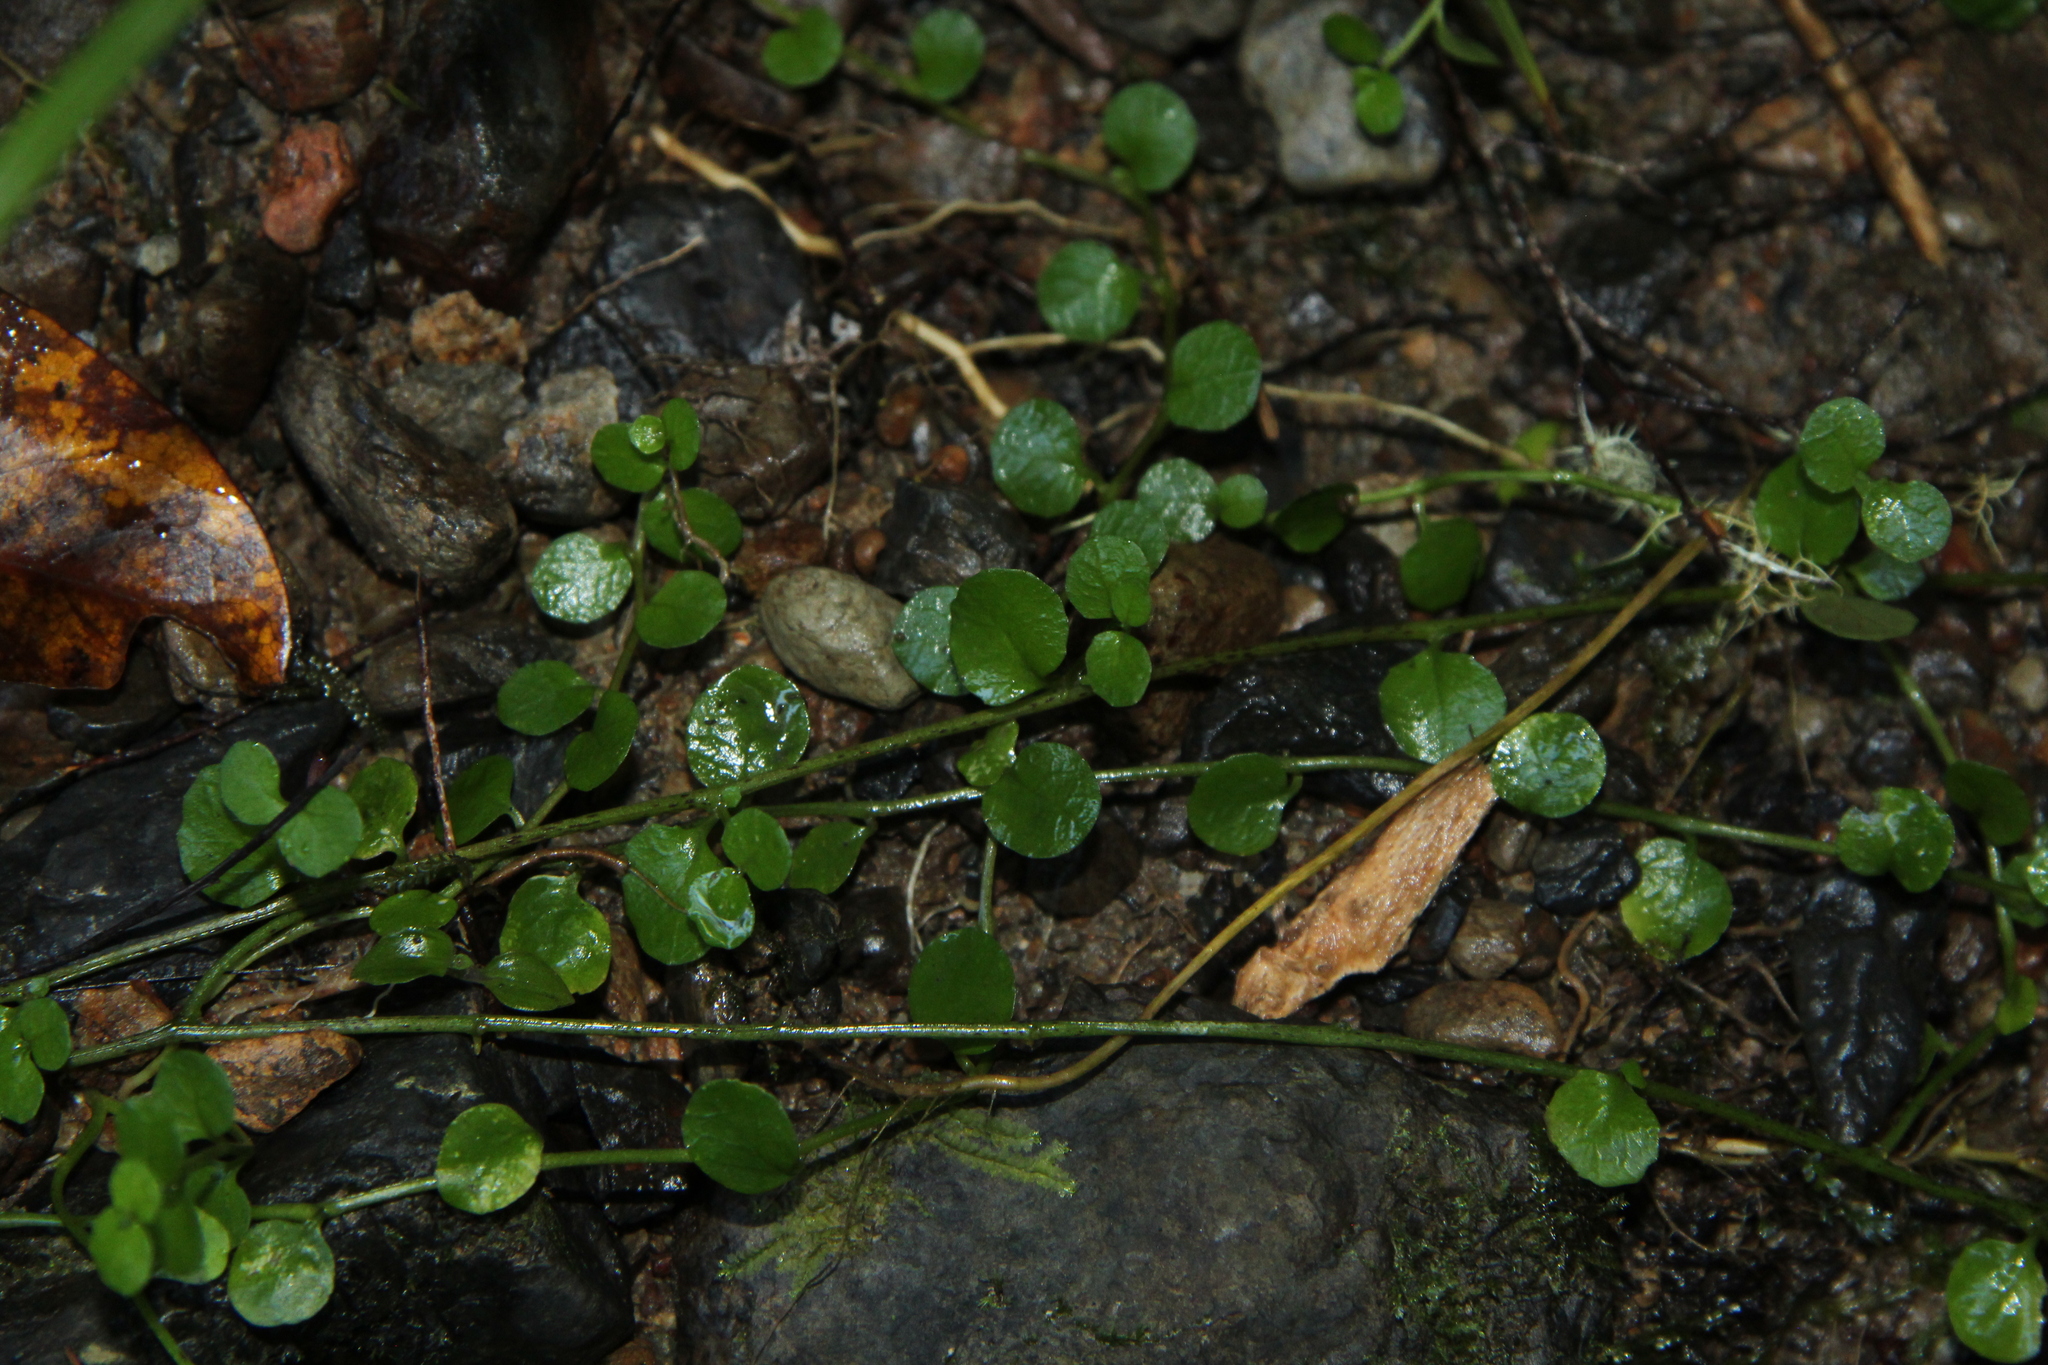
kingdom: Plantae
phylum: Tracheophyta
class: Magnoliopsida
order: Asterales
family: Campanulaceae
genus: Lobelia
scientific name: Lobelia angulata
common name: Lawn lobelia
